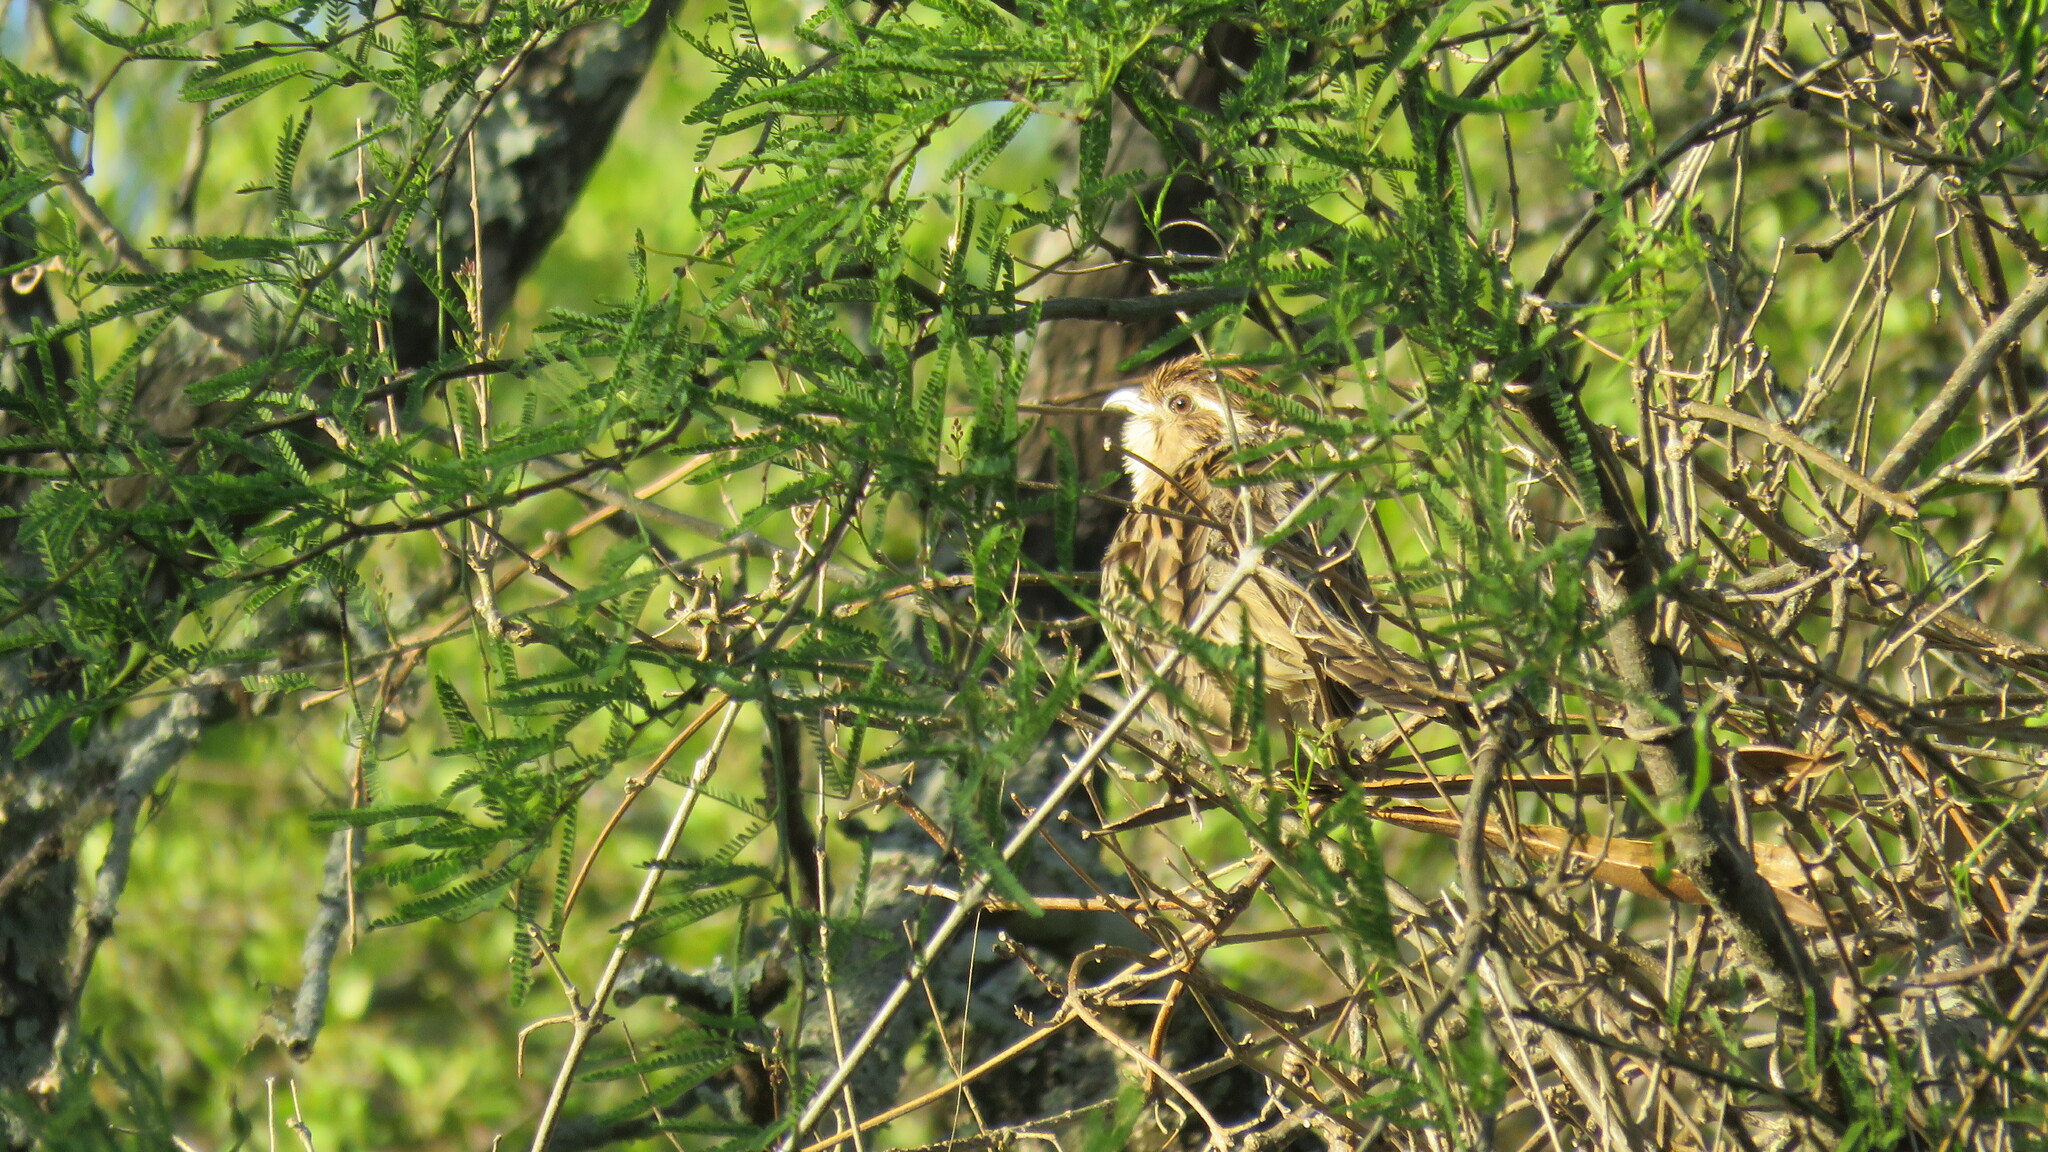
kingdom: Animalia
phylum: Chordata
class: Aves
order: Cuculiformes
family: Cuculidae
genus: Tapera
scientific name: Tapera naevia
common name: Striped cuckoo
